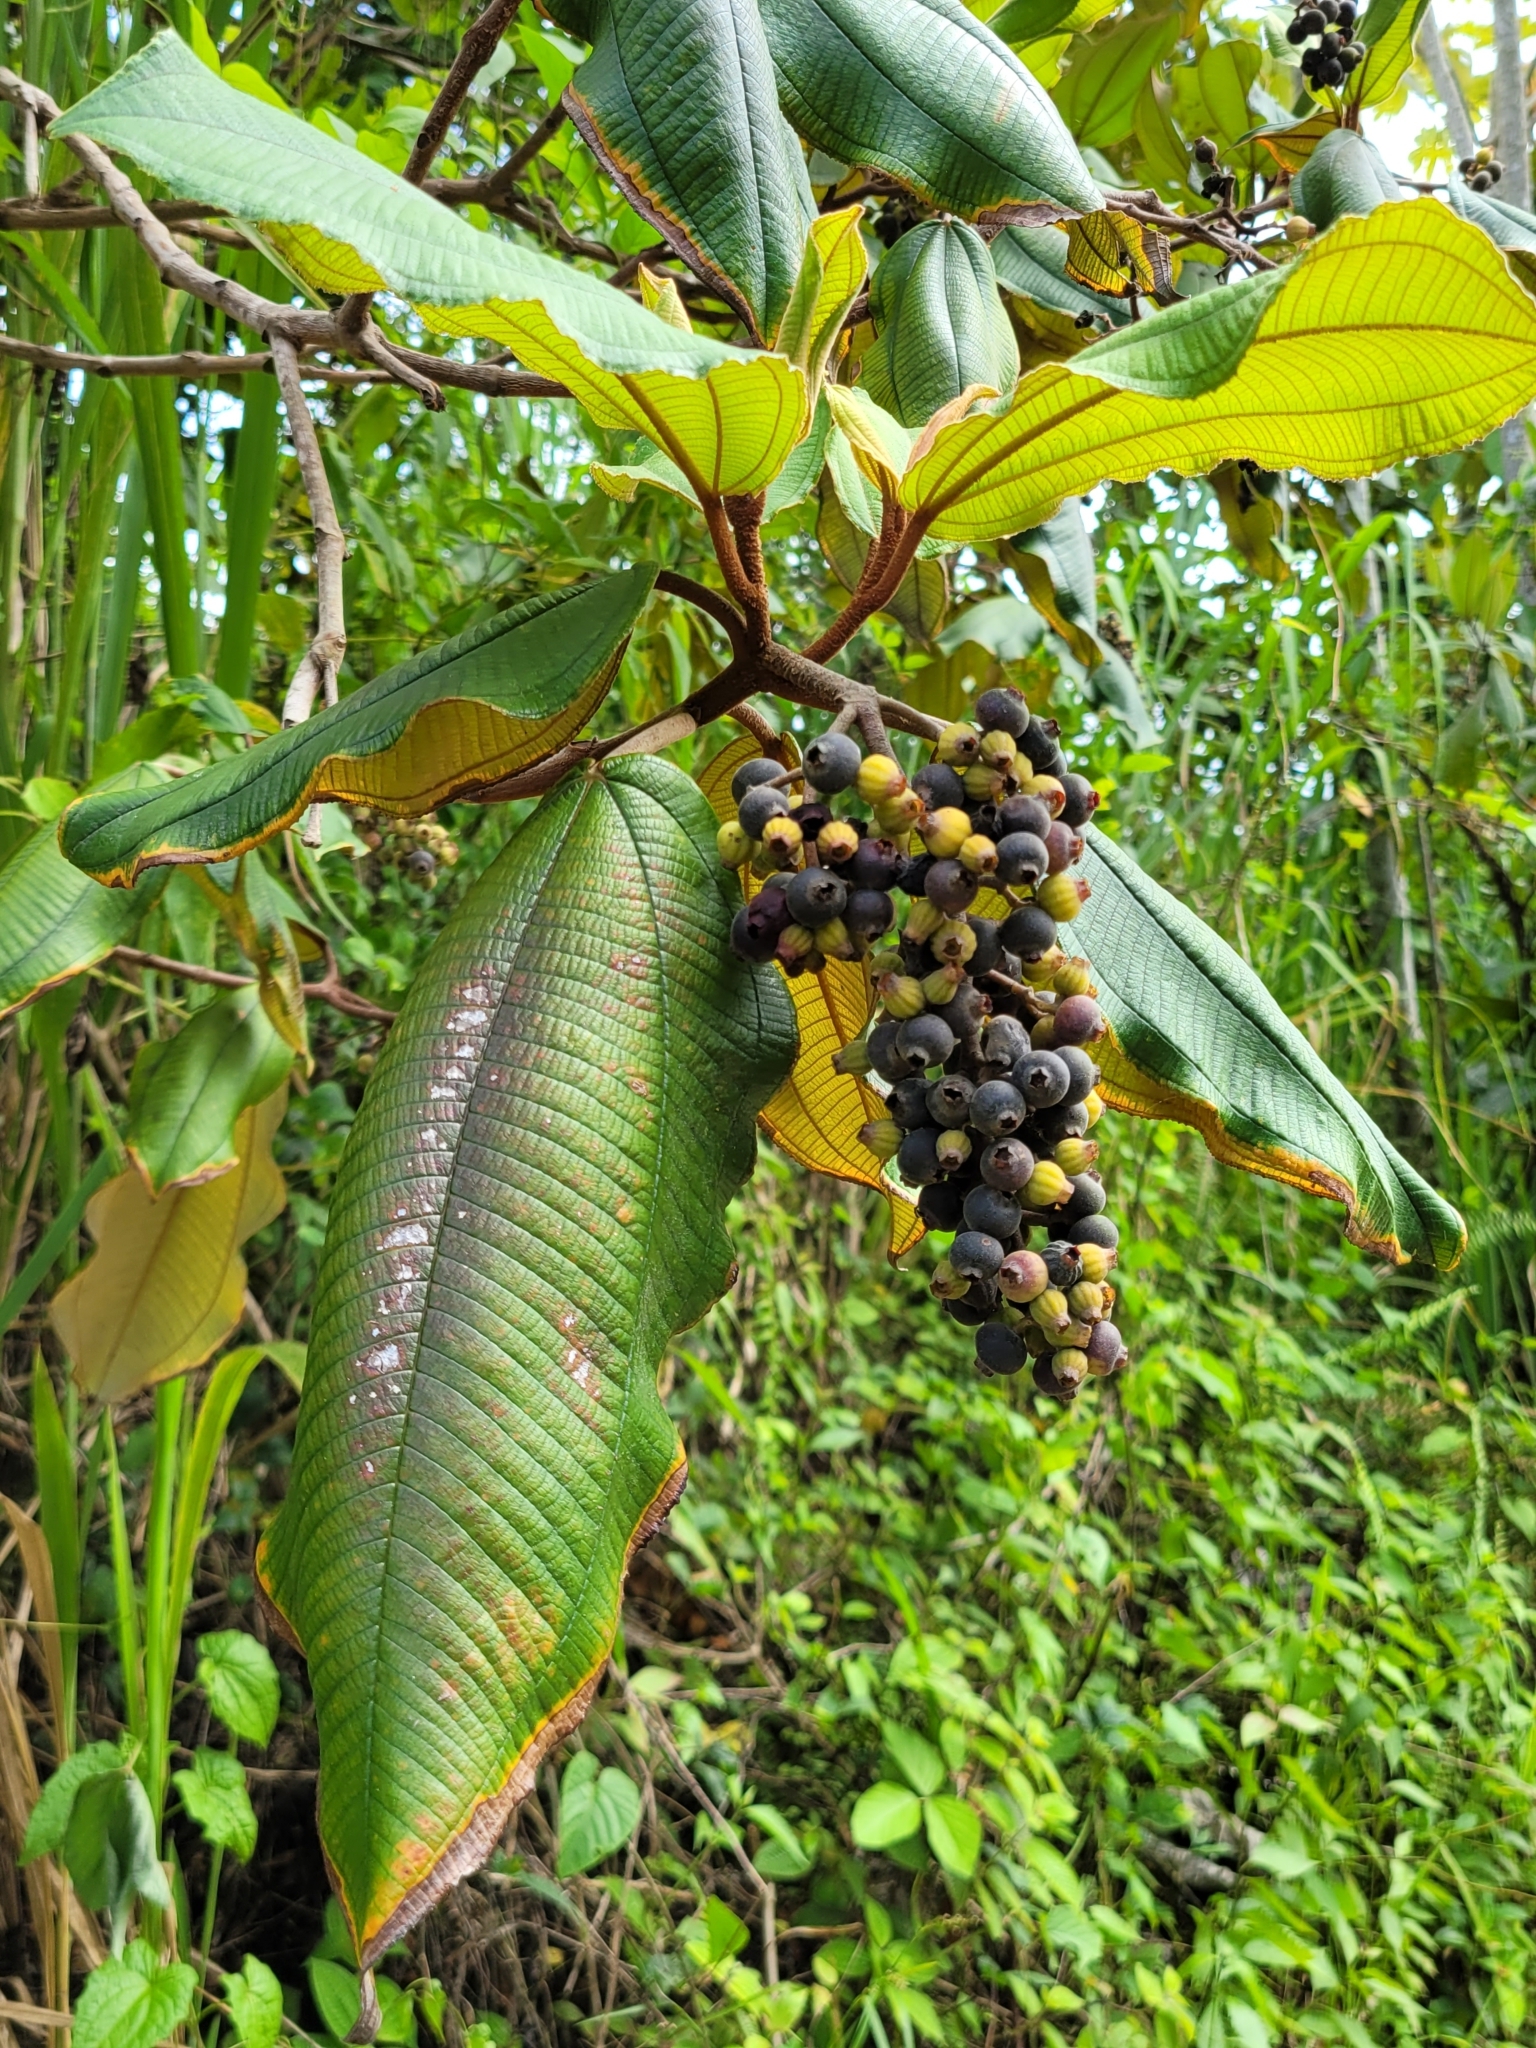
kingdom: Plantae
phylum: Tracheophyta
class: Magnoliopsida
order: Myrtales
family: Melastomataceae
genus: Miconia
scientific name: Miconia serrulata
